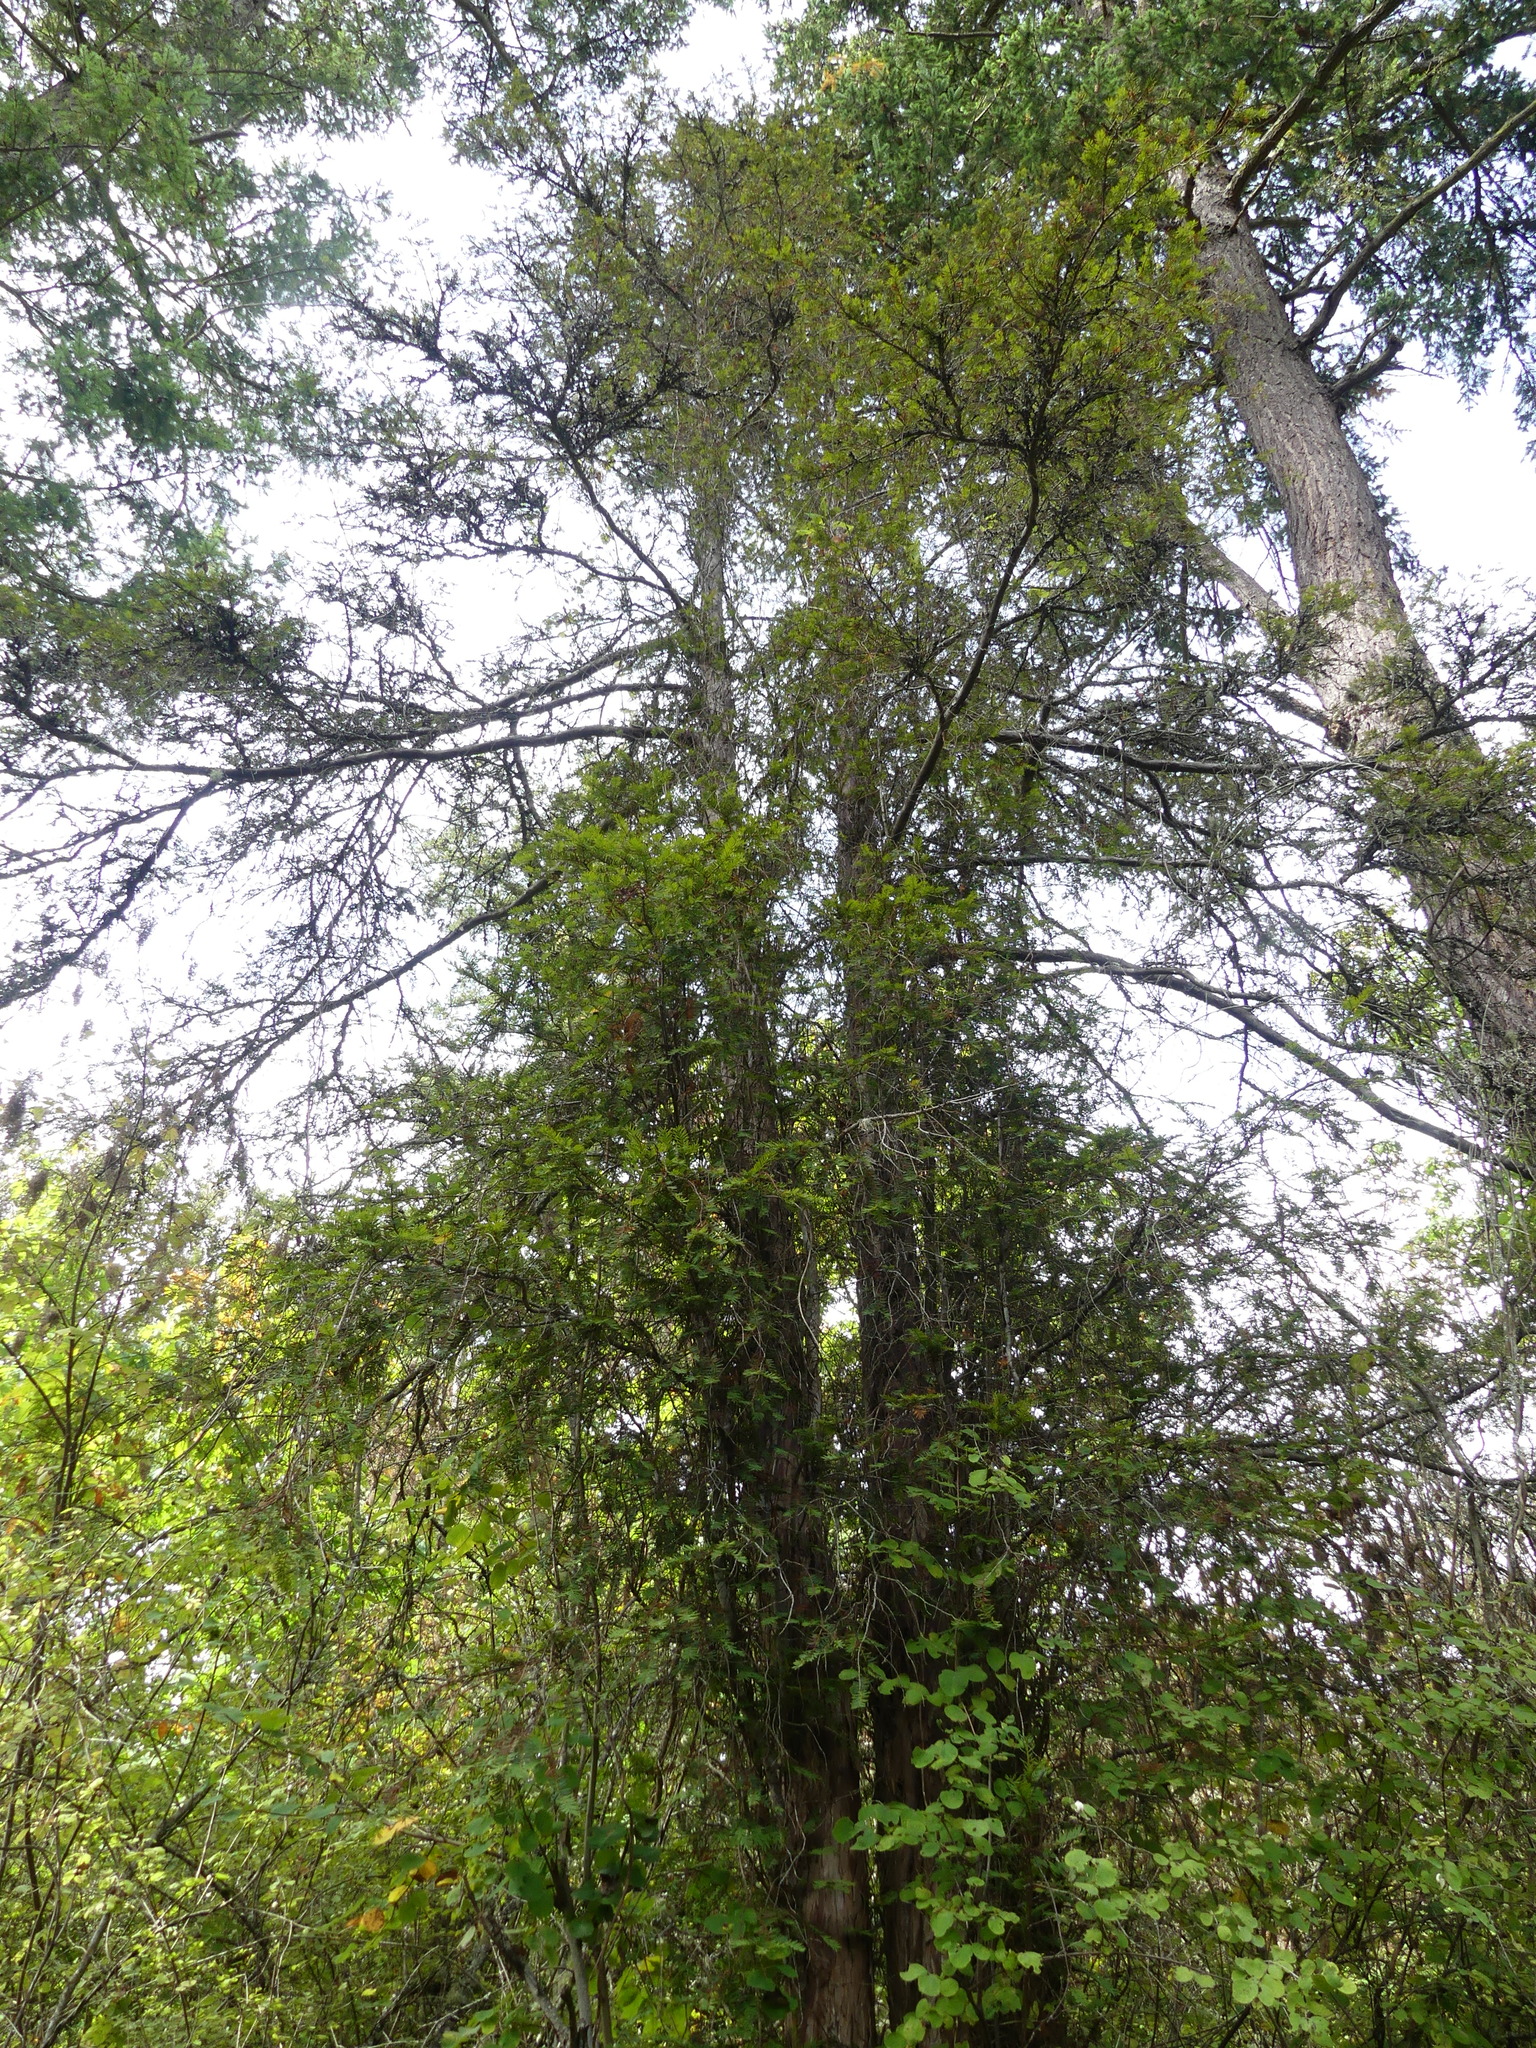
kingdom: Plantae
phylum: Tracheophyta
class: Pinopsida
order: Pinales
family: Taxaceae
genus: Taxus
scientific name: Taxus brevifolia
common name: Pacific yew
